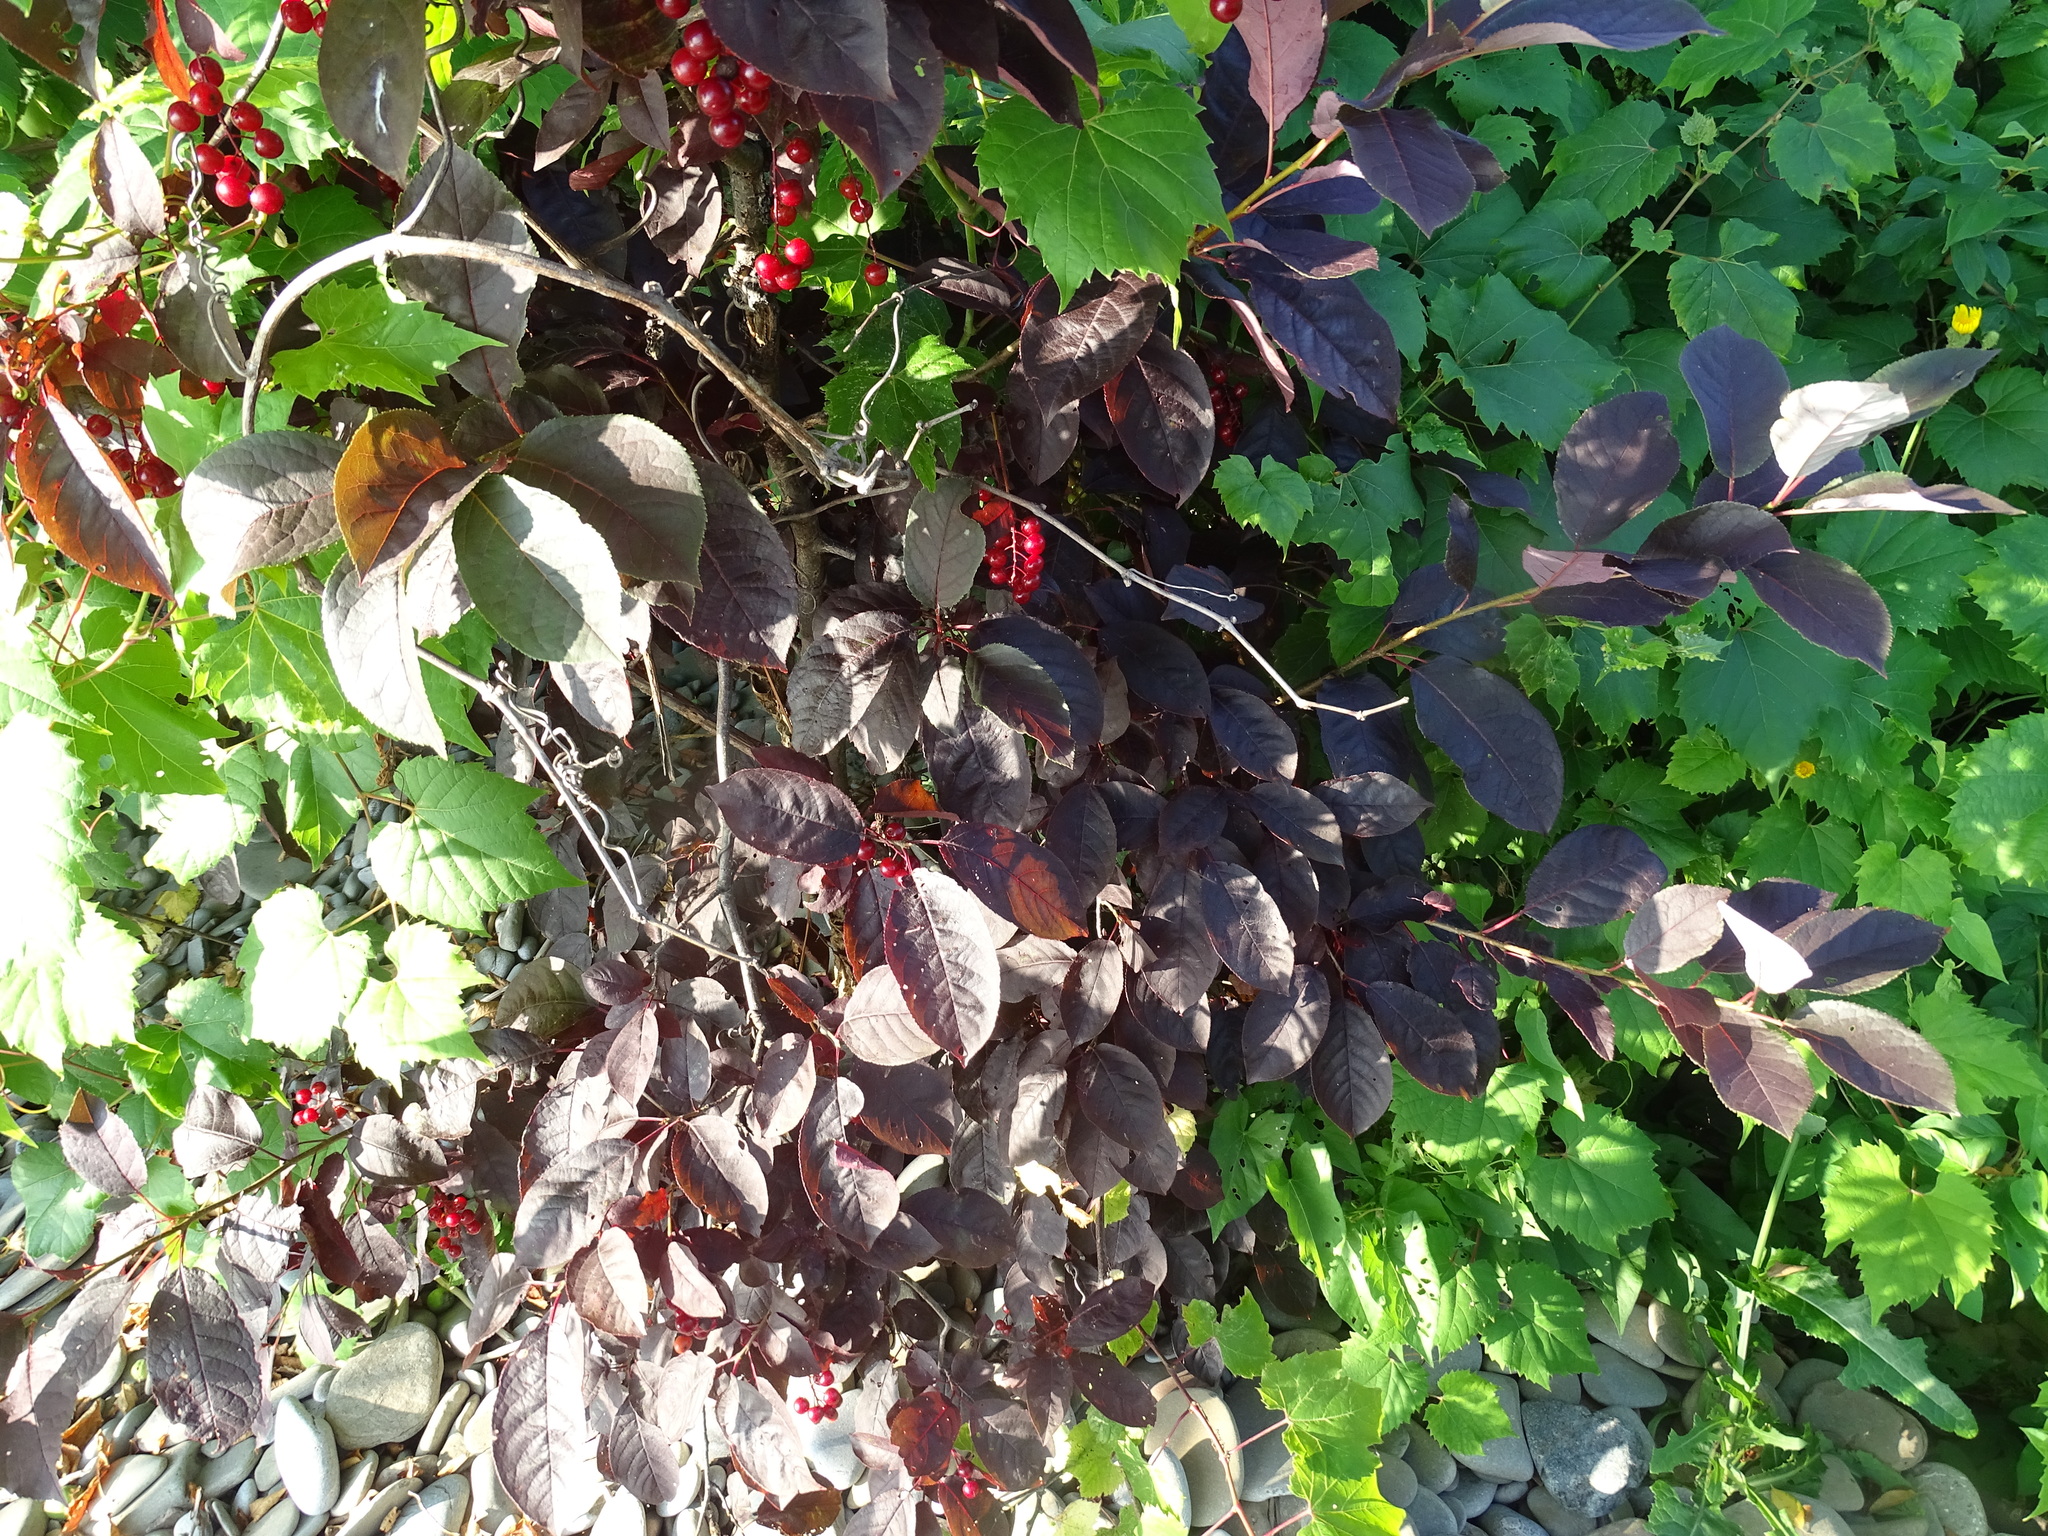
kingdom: Plantae
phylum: Tracheophyta
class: Magnoliopsida
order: Rosales
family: Rosaceae
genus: Prunus
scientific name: Prunus virginiana
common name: Chokecherry
